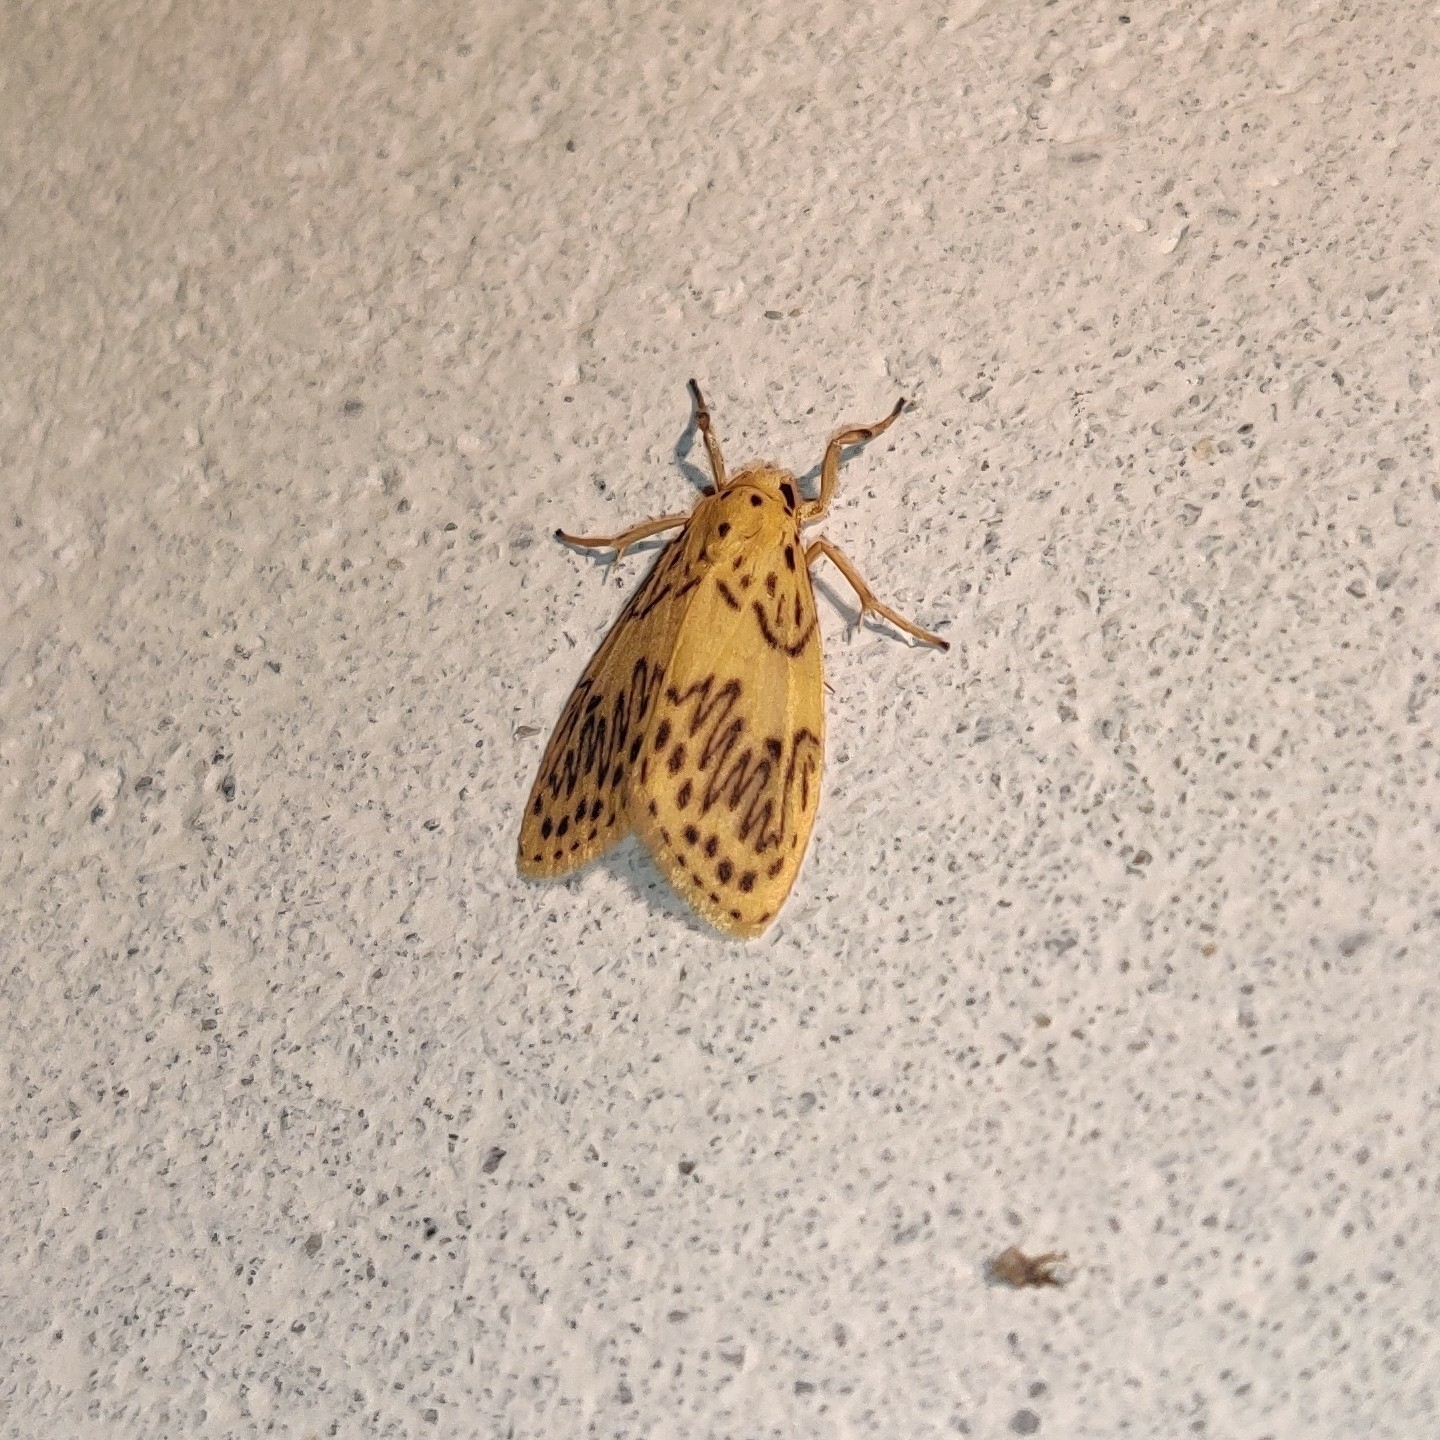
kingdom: Animalia
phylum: Arthropoda
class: Insecta
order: Lepidoptera
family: Erebidae
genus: Miltochrista
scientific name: Miltochrista undulosa
